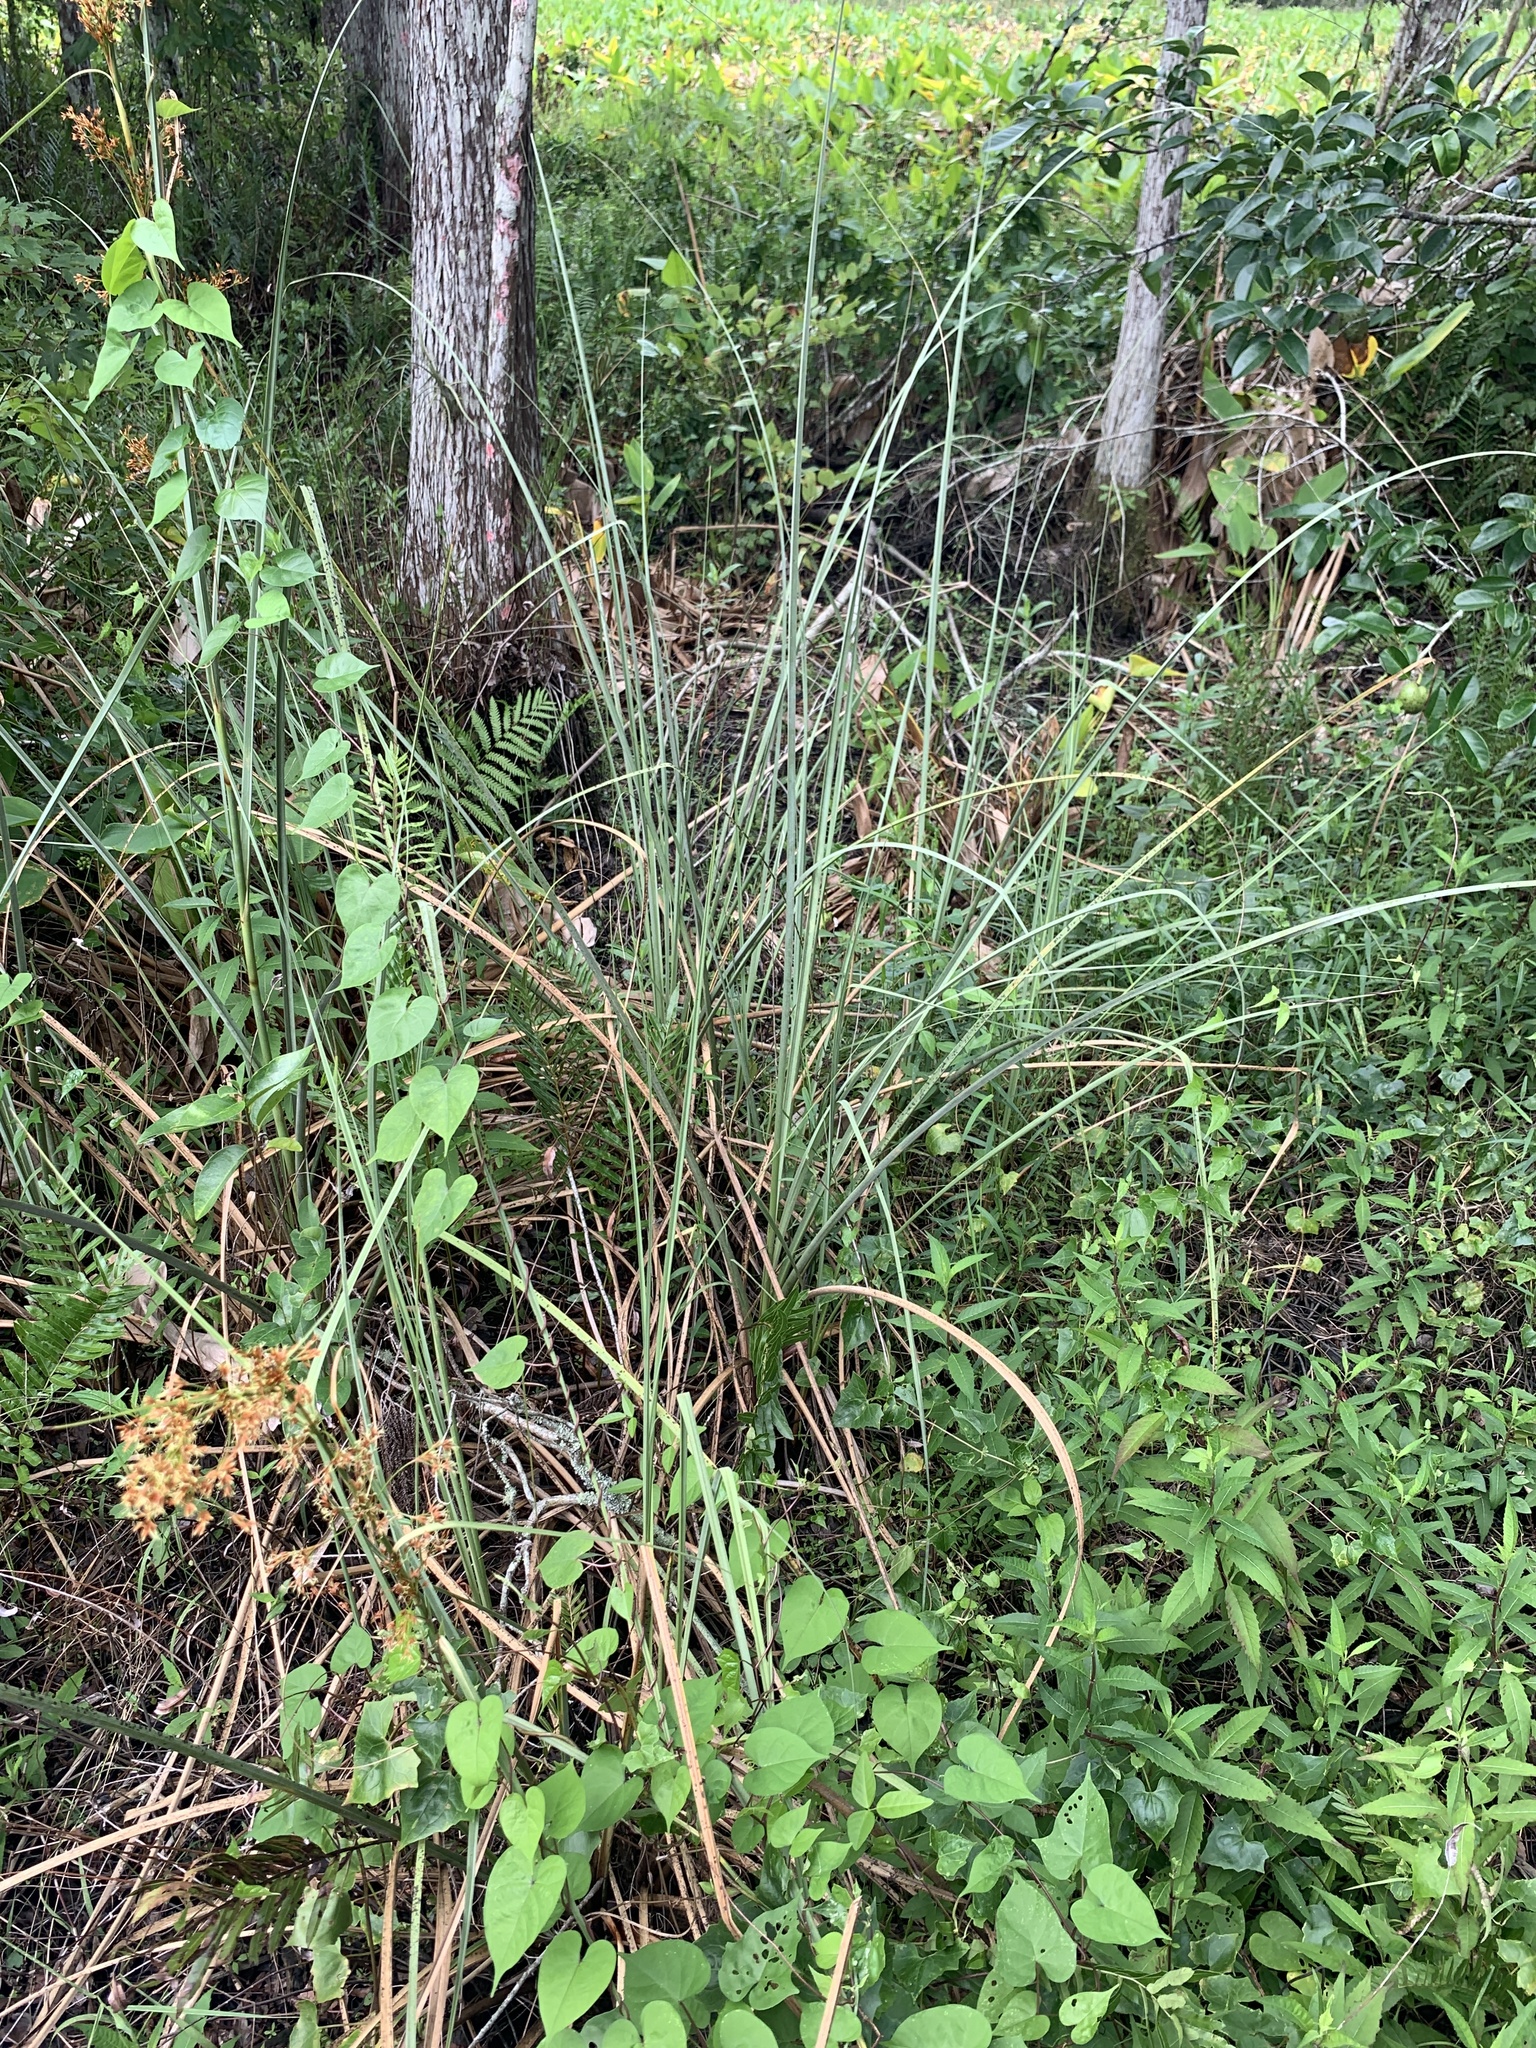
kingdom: Plantae
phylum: Tracheophyta
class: Liliopsida
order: Poales
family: Cyperaceae
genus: Cladium
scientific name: Cladium mariscus
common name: Great fen-sedge
